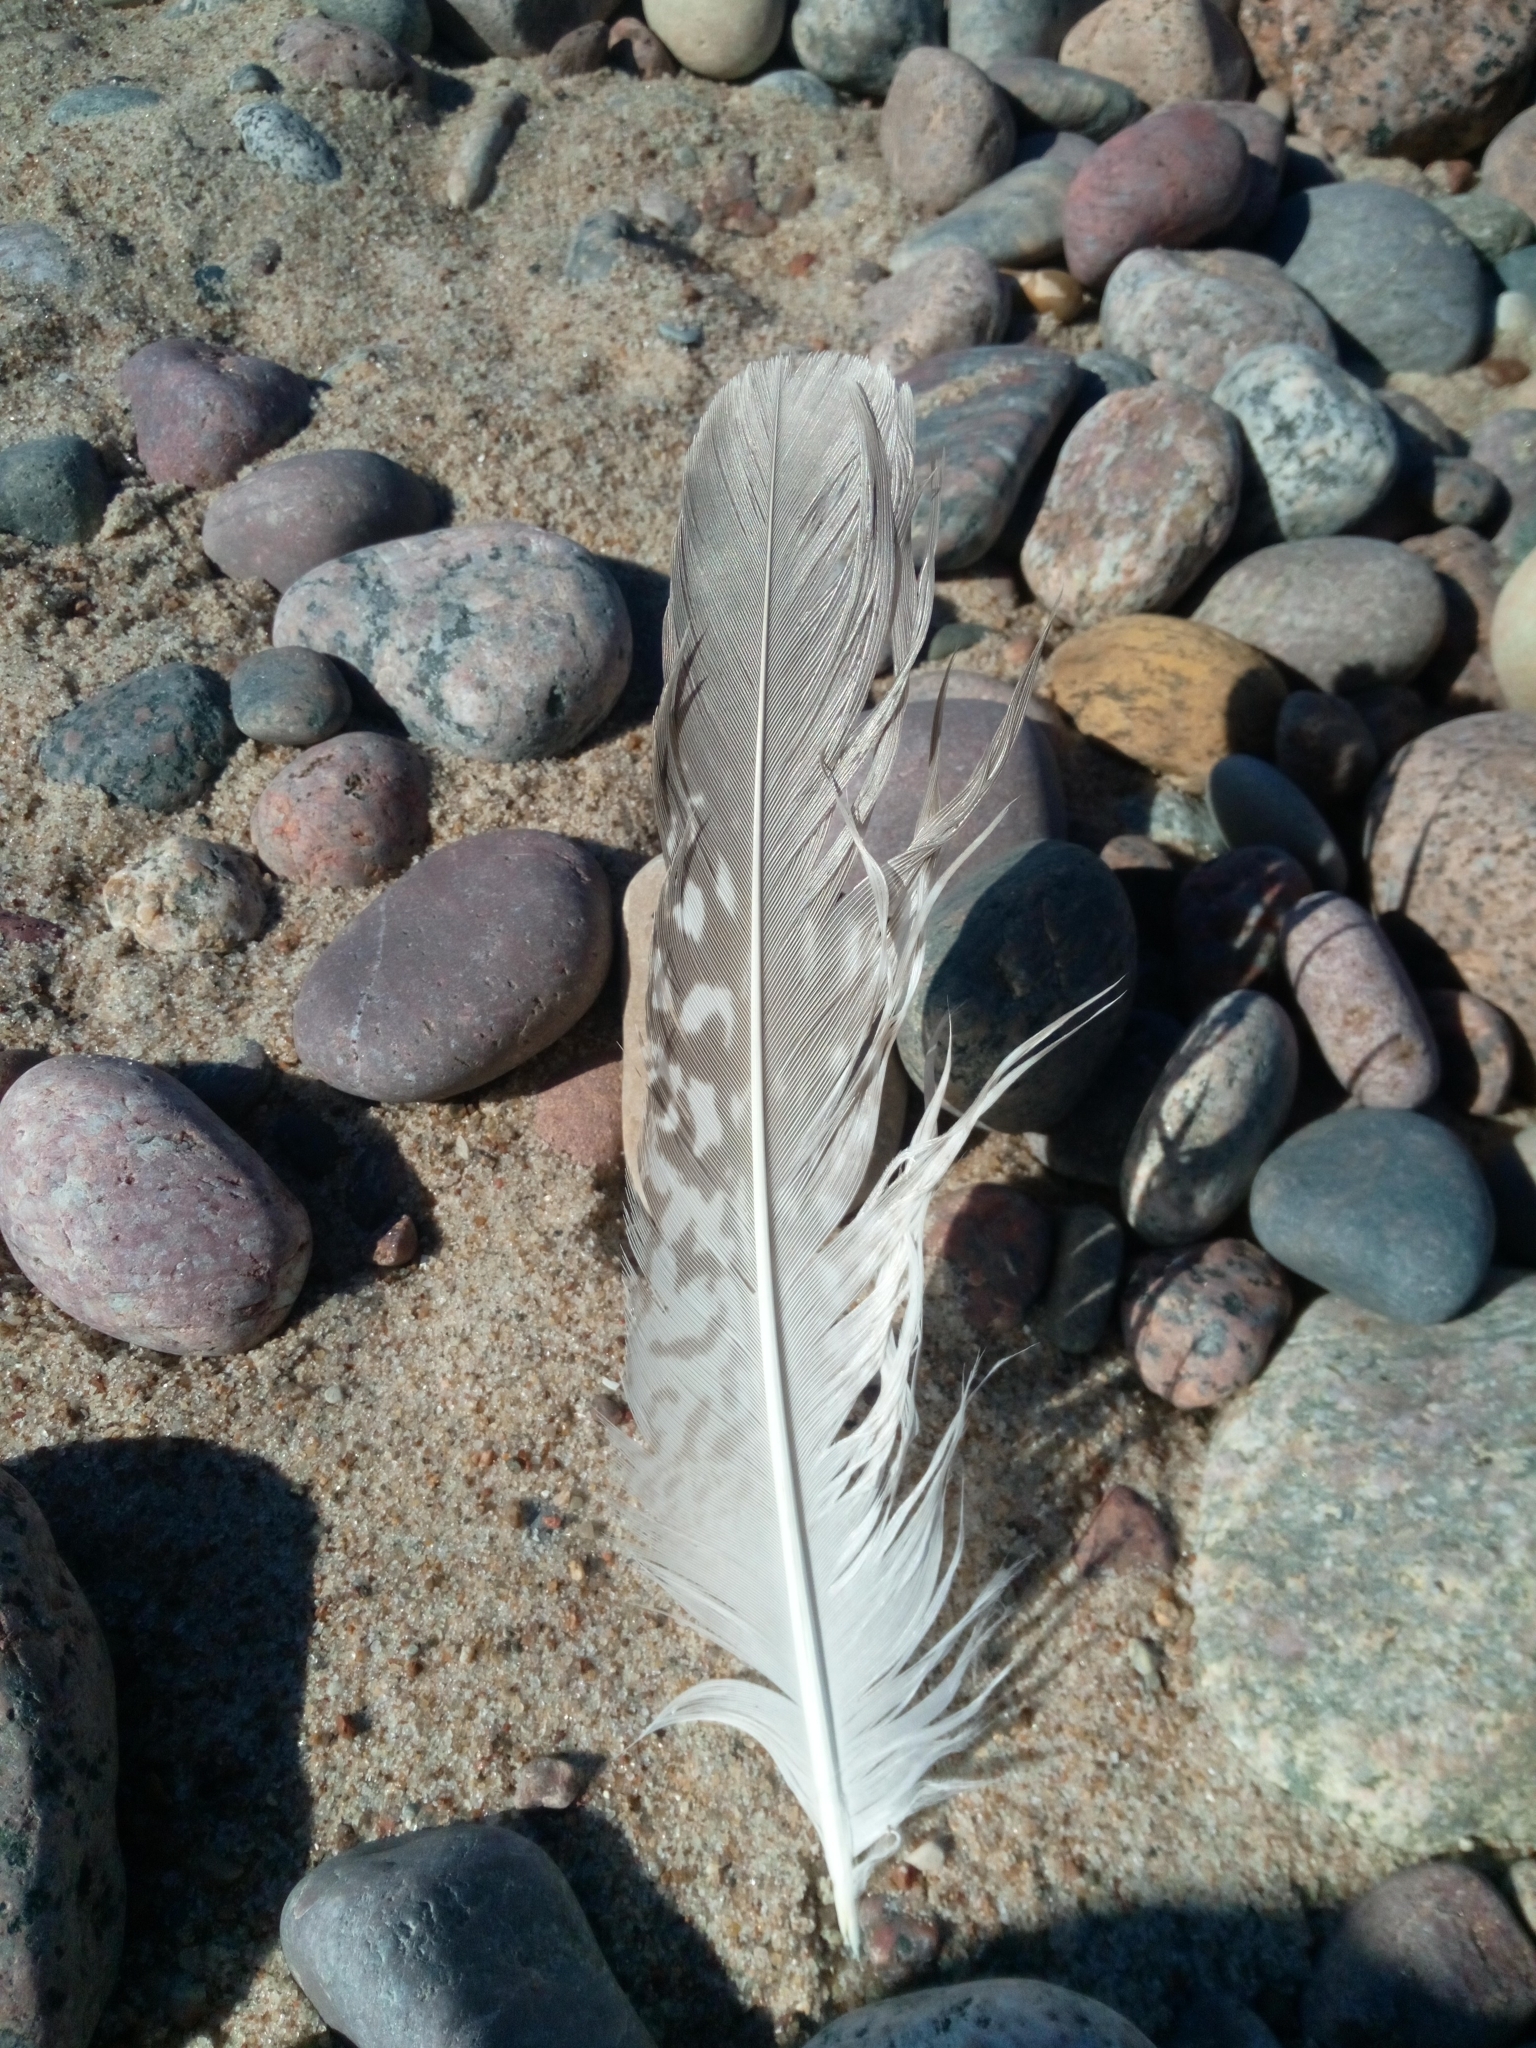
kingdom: Animalia
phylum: Chordata
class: Aves
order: Charadriiformes
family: Laridae
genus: Larus
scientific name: Larus
